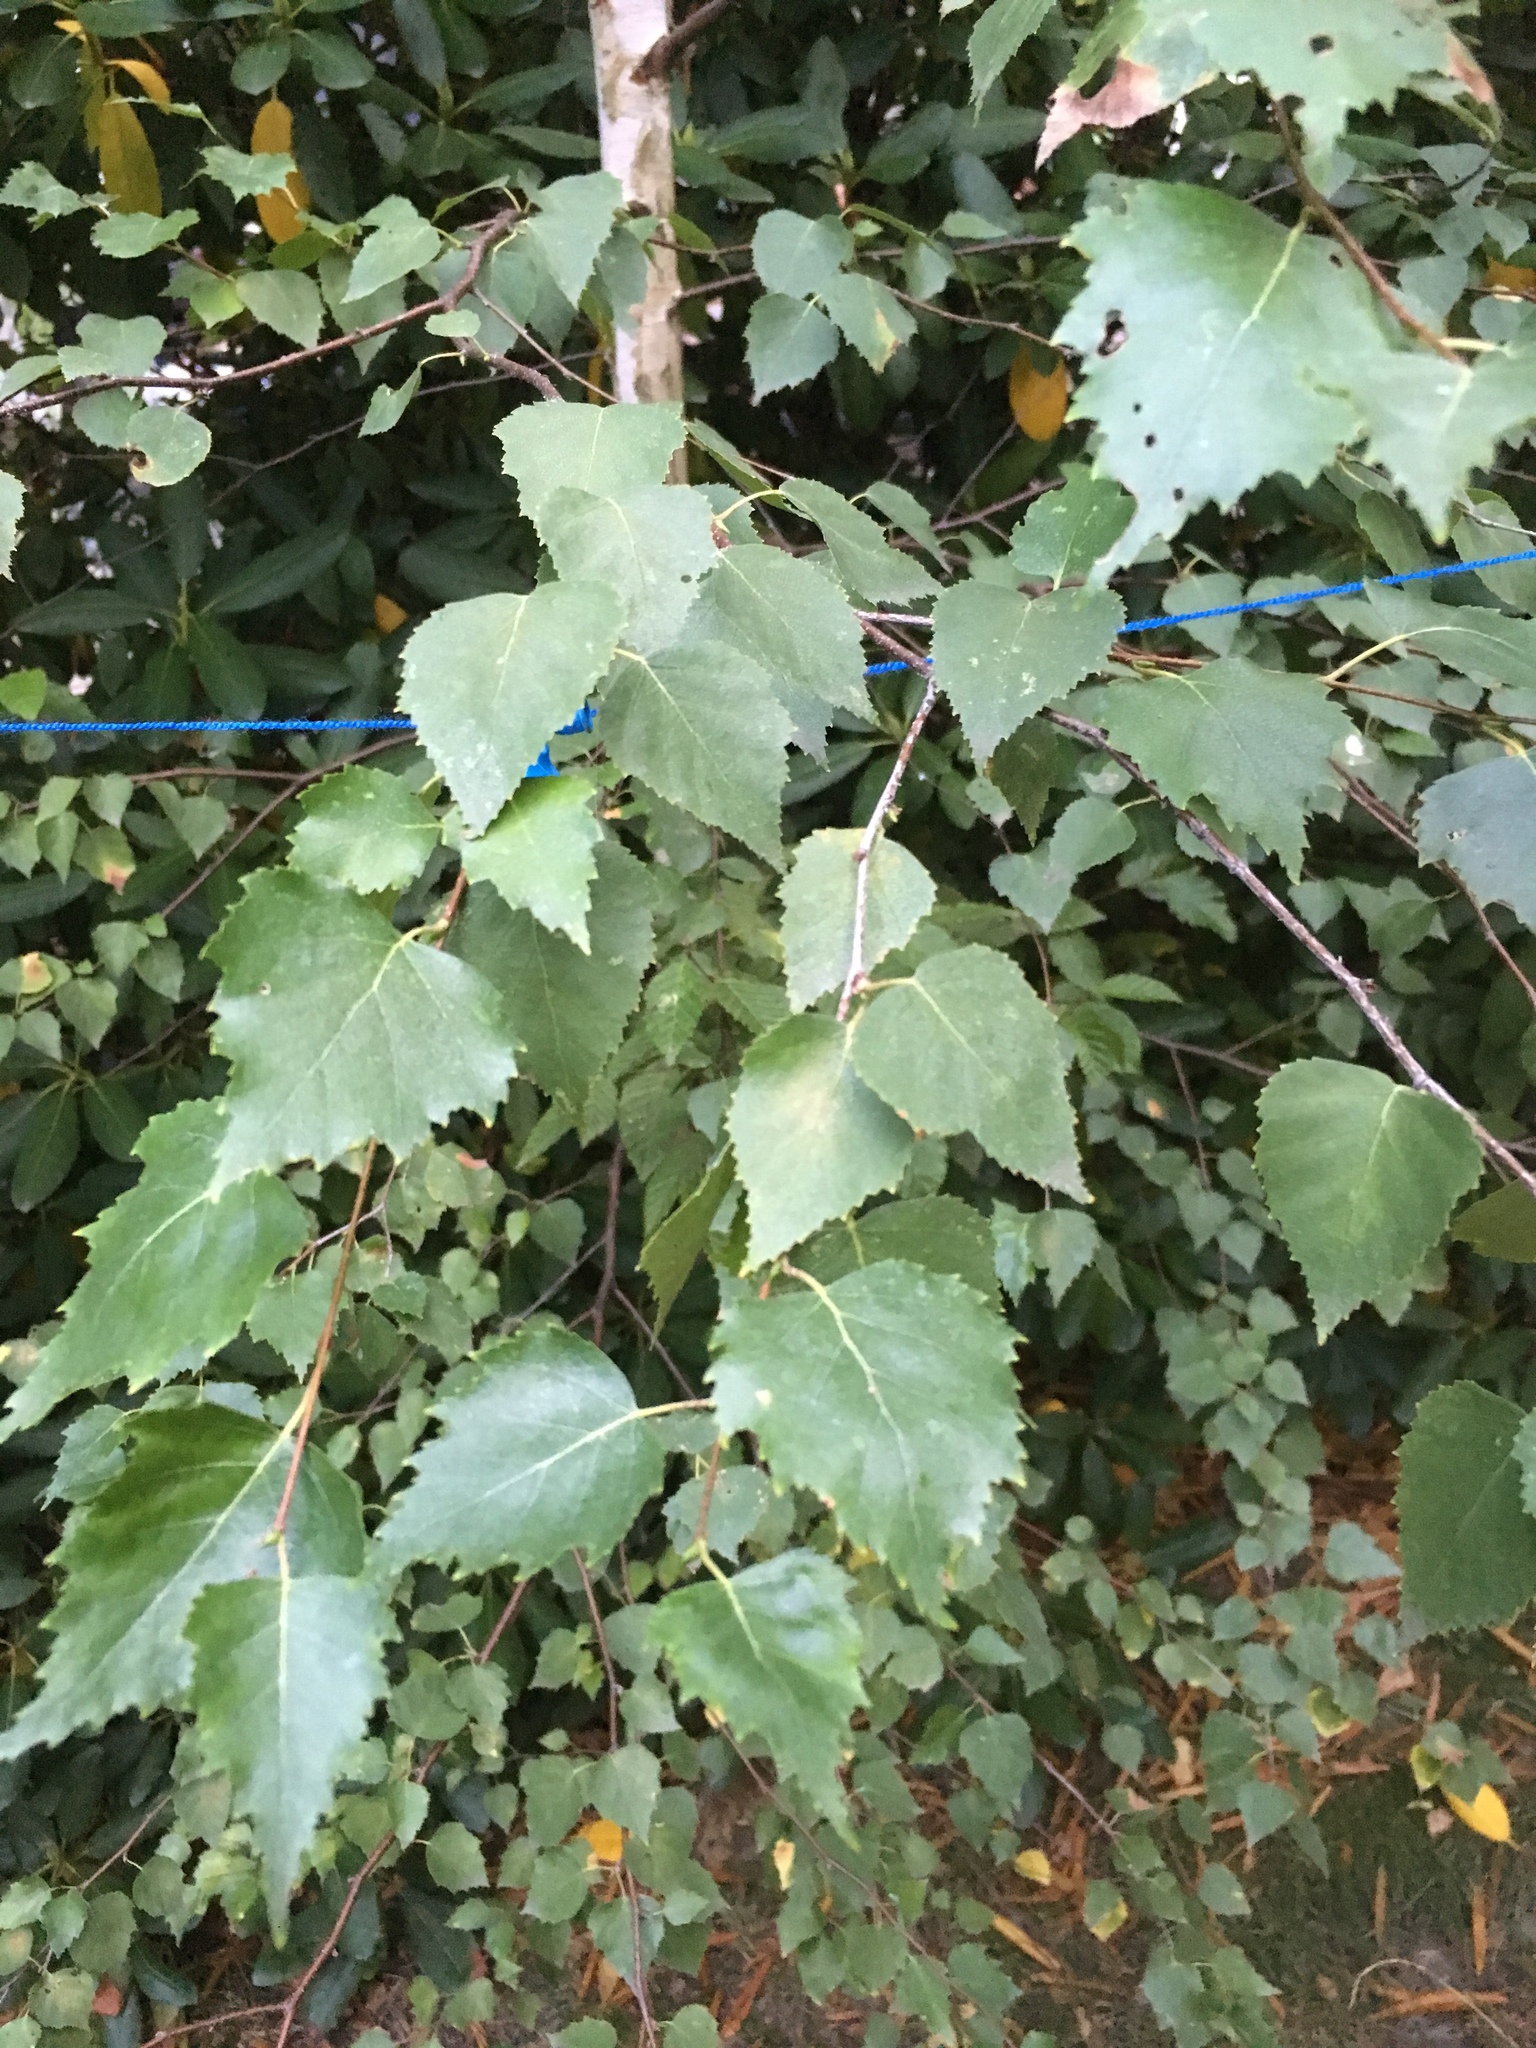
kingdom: Plantae
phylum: Tracheophyta
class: Magnoliopsida
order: Fagales
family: Betulaceae
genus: Betula
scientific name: Betula pendula
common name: Silver birch
